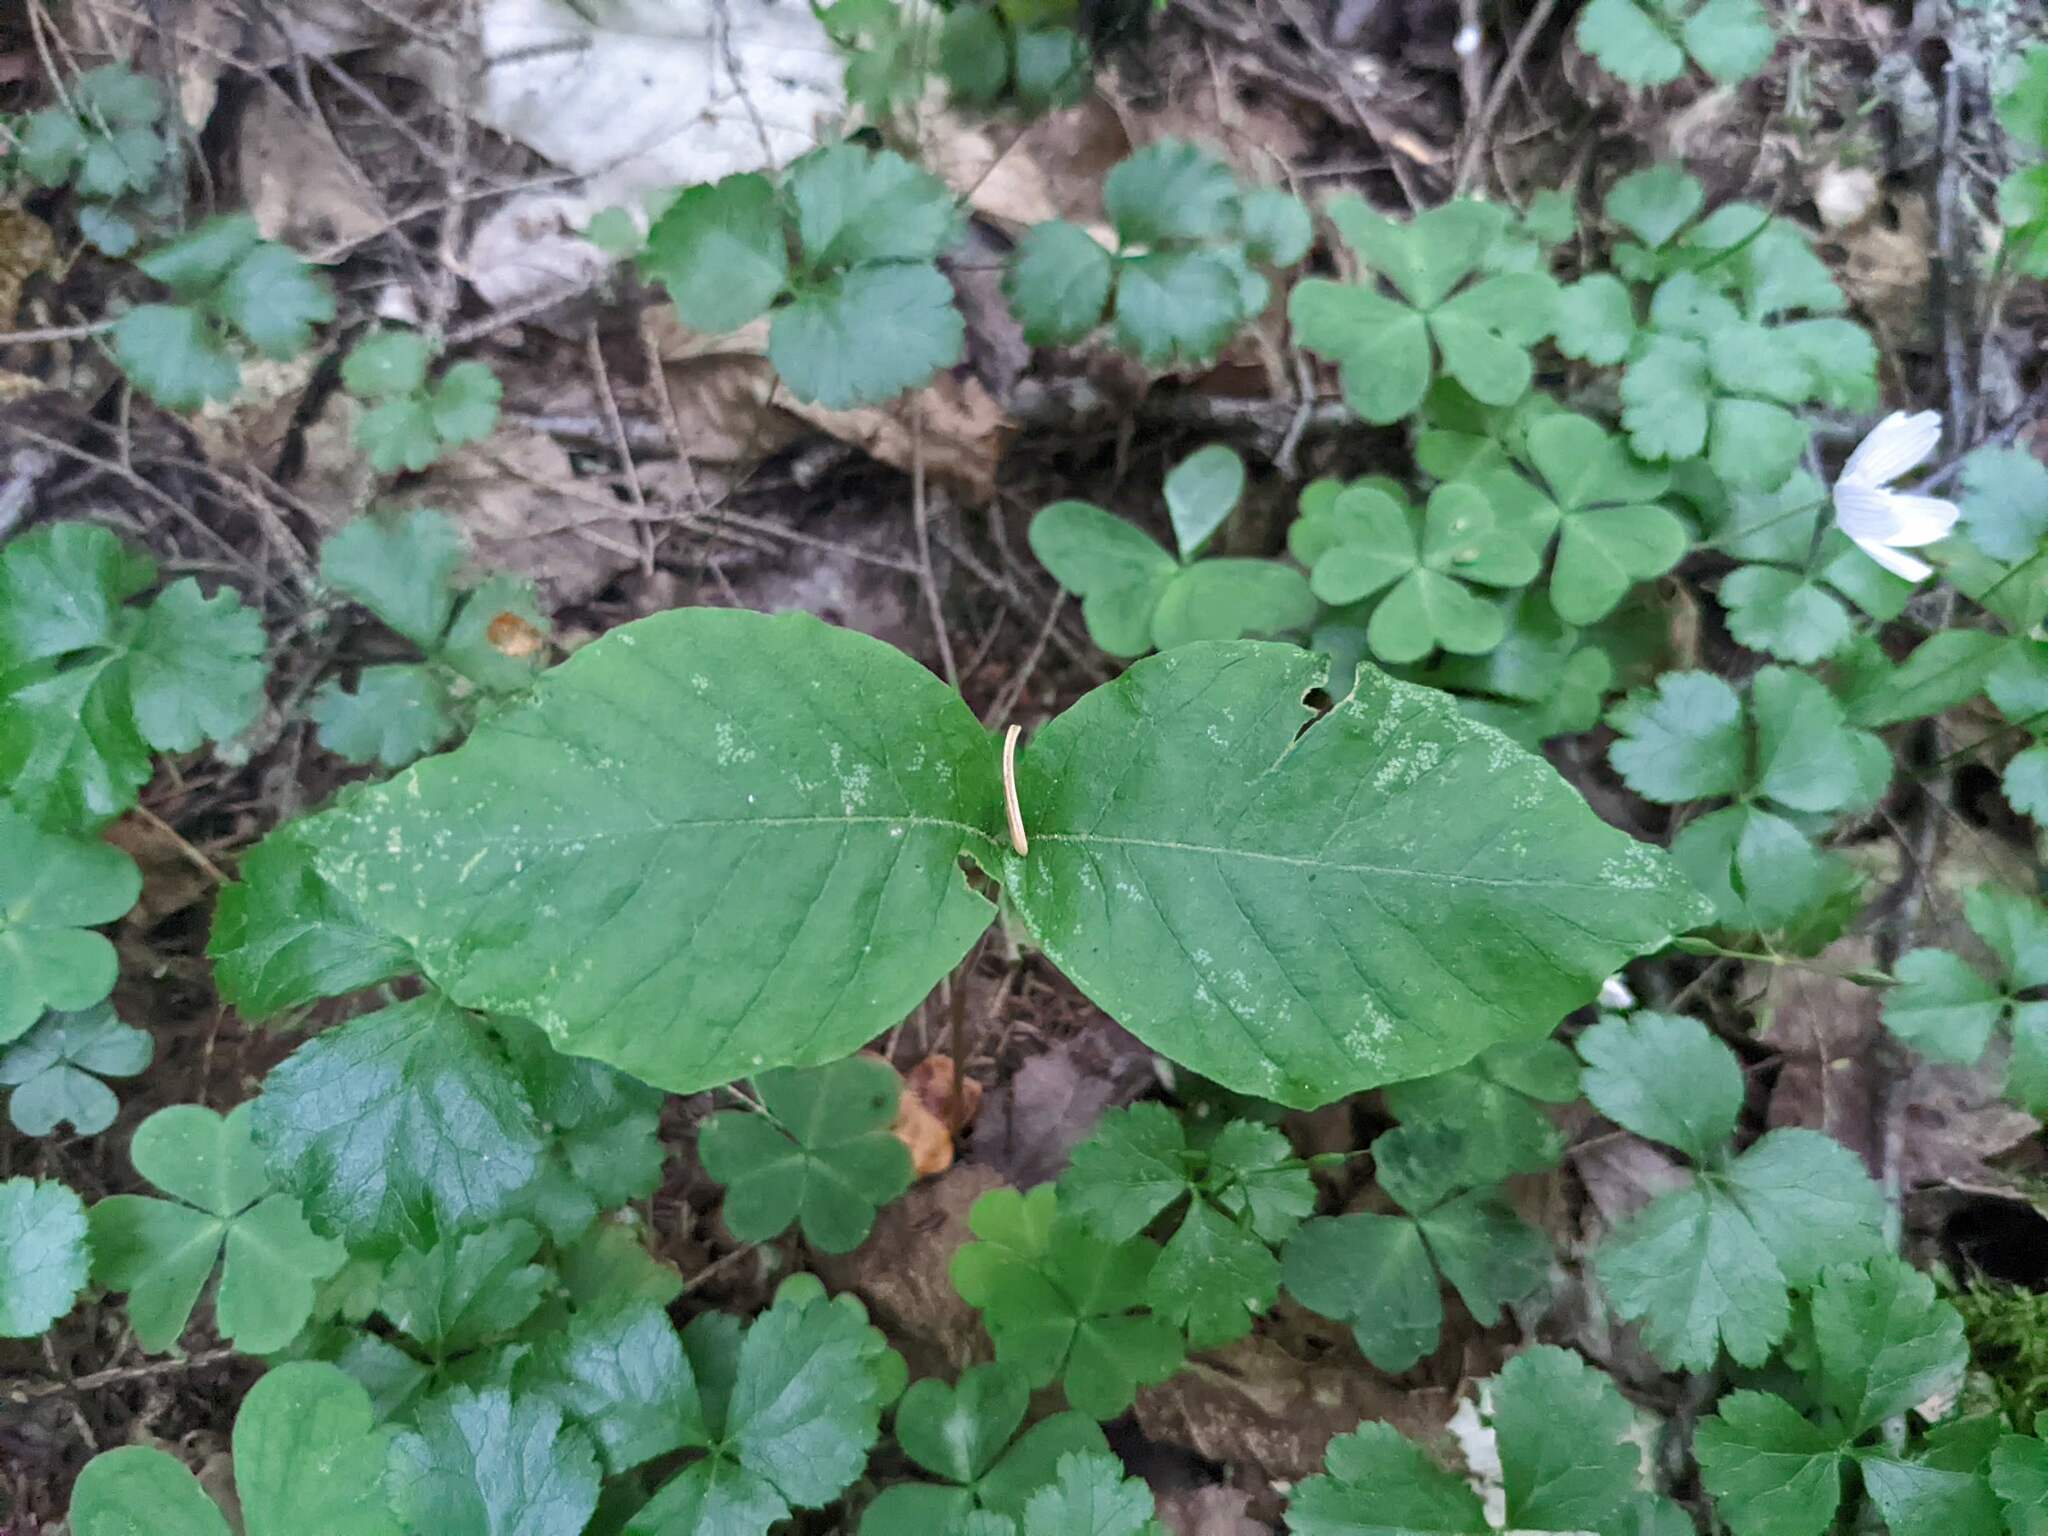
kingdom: Plantae
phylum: Tracheophyta
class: Magnoliopsida
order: Fagales
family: Fagaceae
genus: Fagus
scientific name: Fagus grandifolia
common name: American beech
